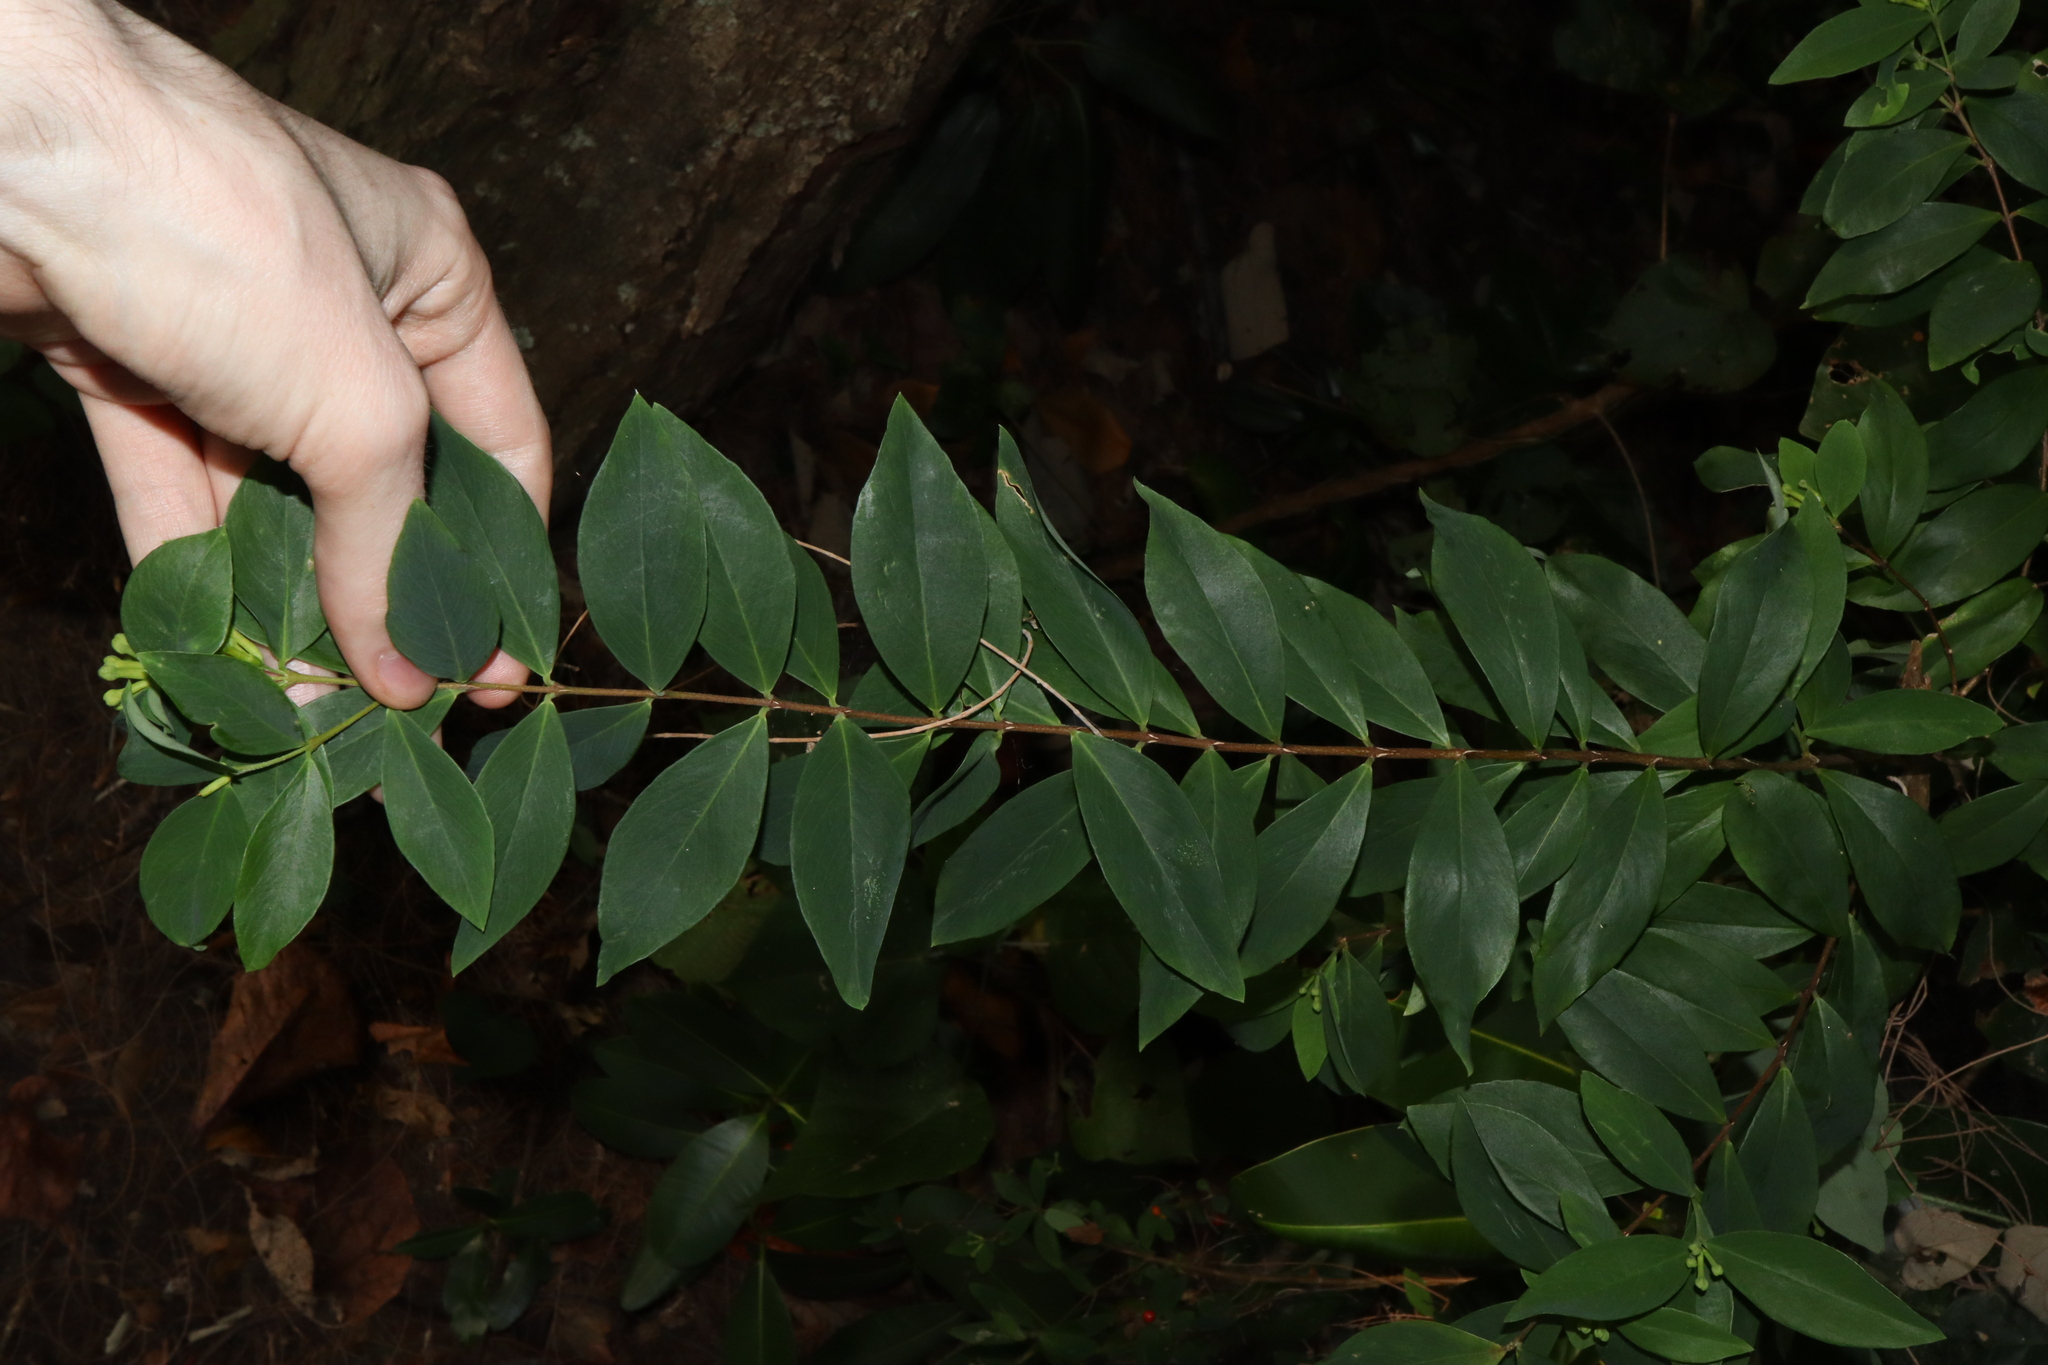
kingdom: Plantae
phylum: Tracheophyta
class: Magnoliopsida
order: Malvales
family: Thymelaeaceae
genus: Wikstroemia
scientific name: Wikstroemia indica
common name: Tiebush
